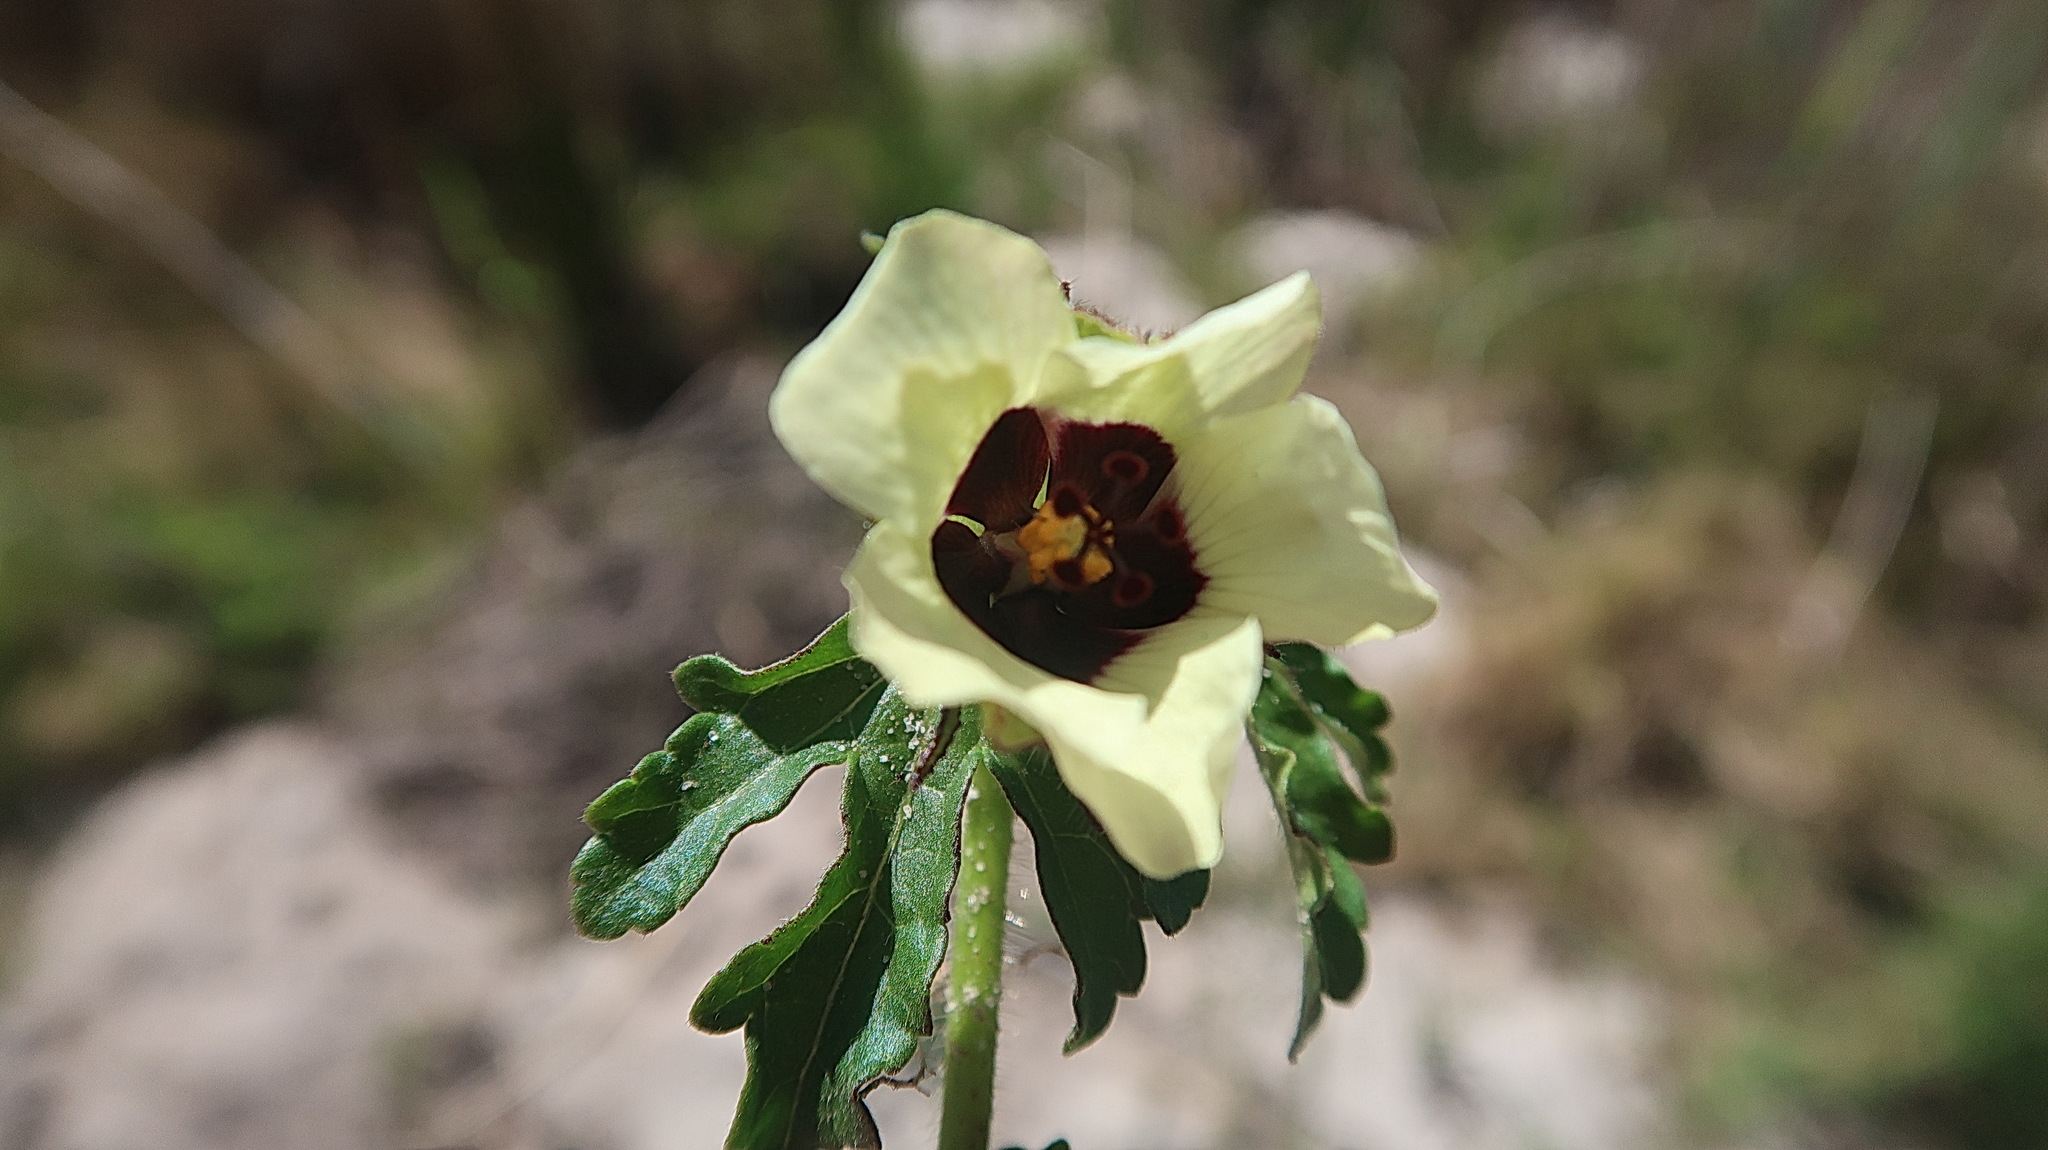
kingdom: Plantae
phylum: Tracheophyta
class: Magnoliopsida
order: Malvales
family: Malvaceae
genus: Hibiscus
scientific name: Hibiscus trionum
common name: Bladder ketmia
